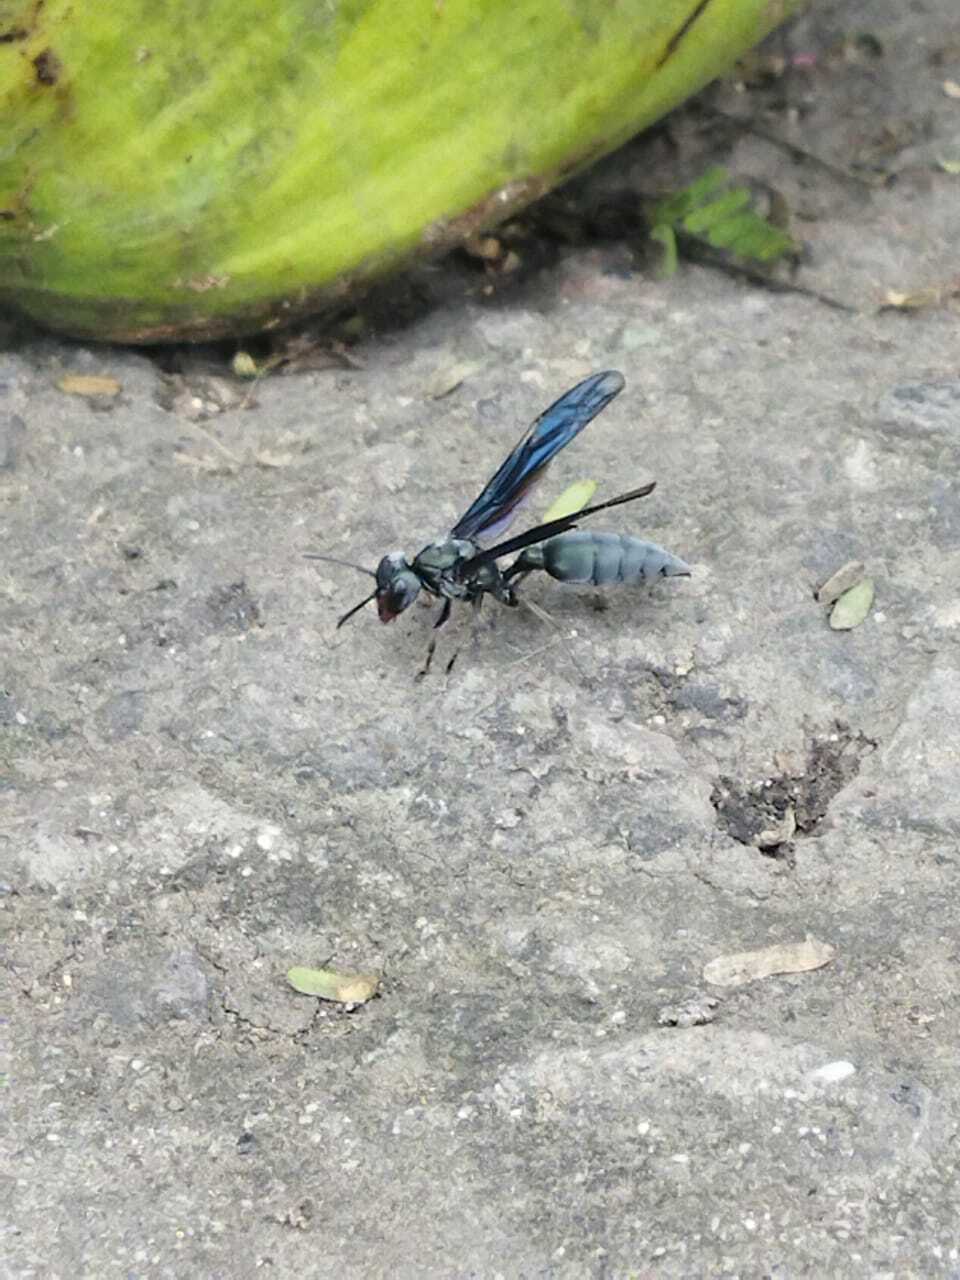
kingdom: Animalia
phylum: Arthropoda
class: Insecta
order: Hymenoptera
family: Vespidae
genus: Synoeca
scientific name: Synoeca septentrionalis
